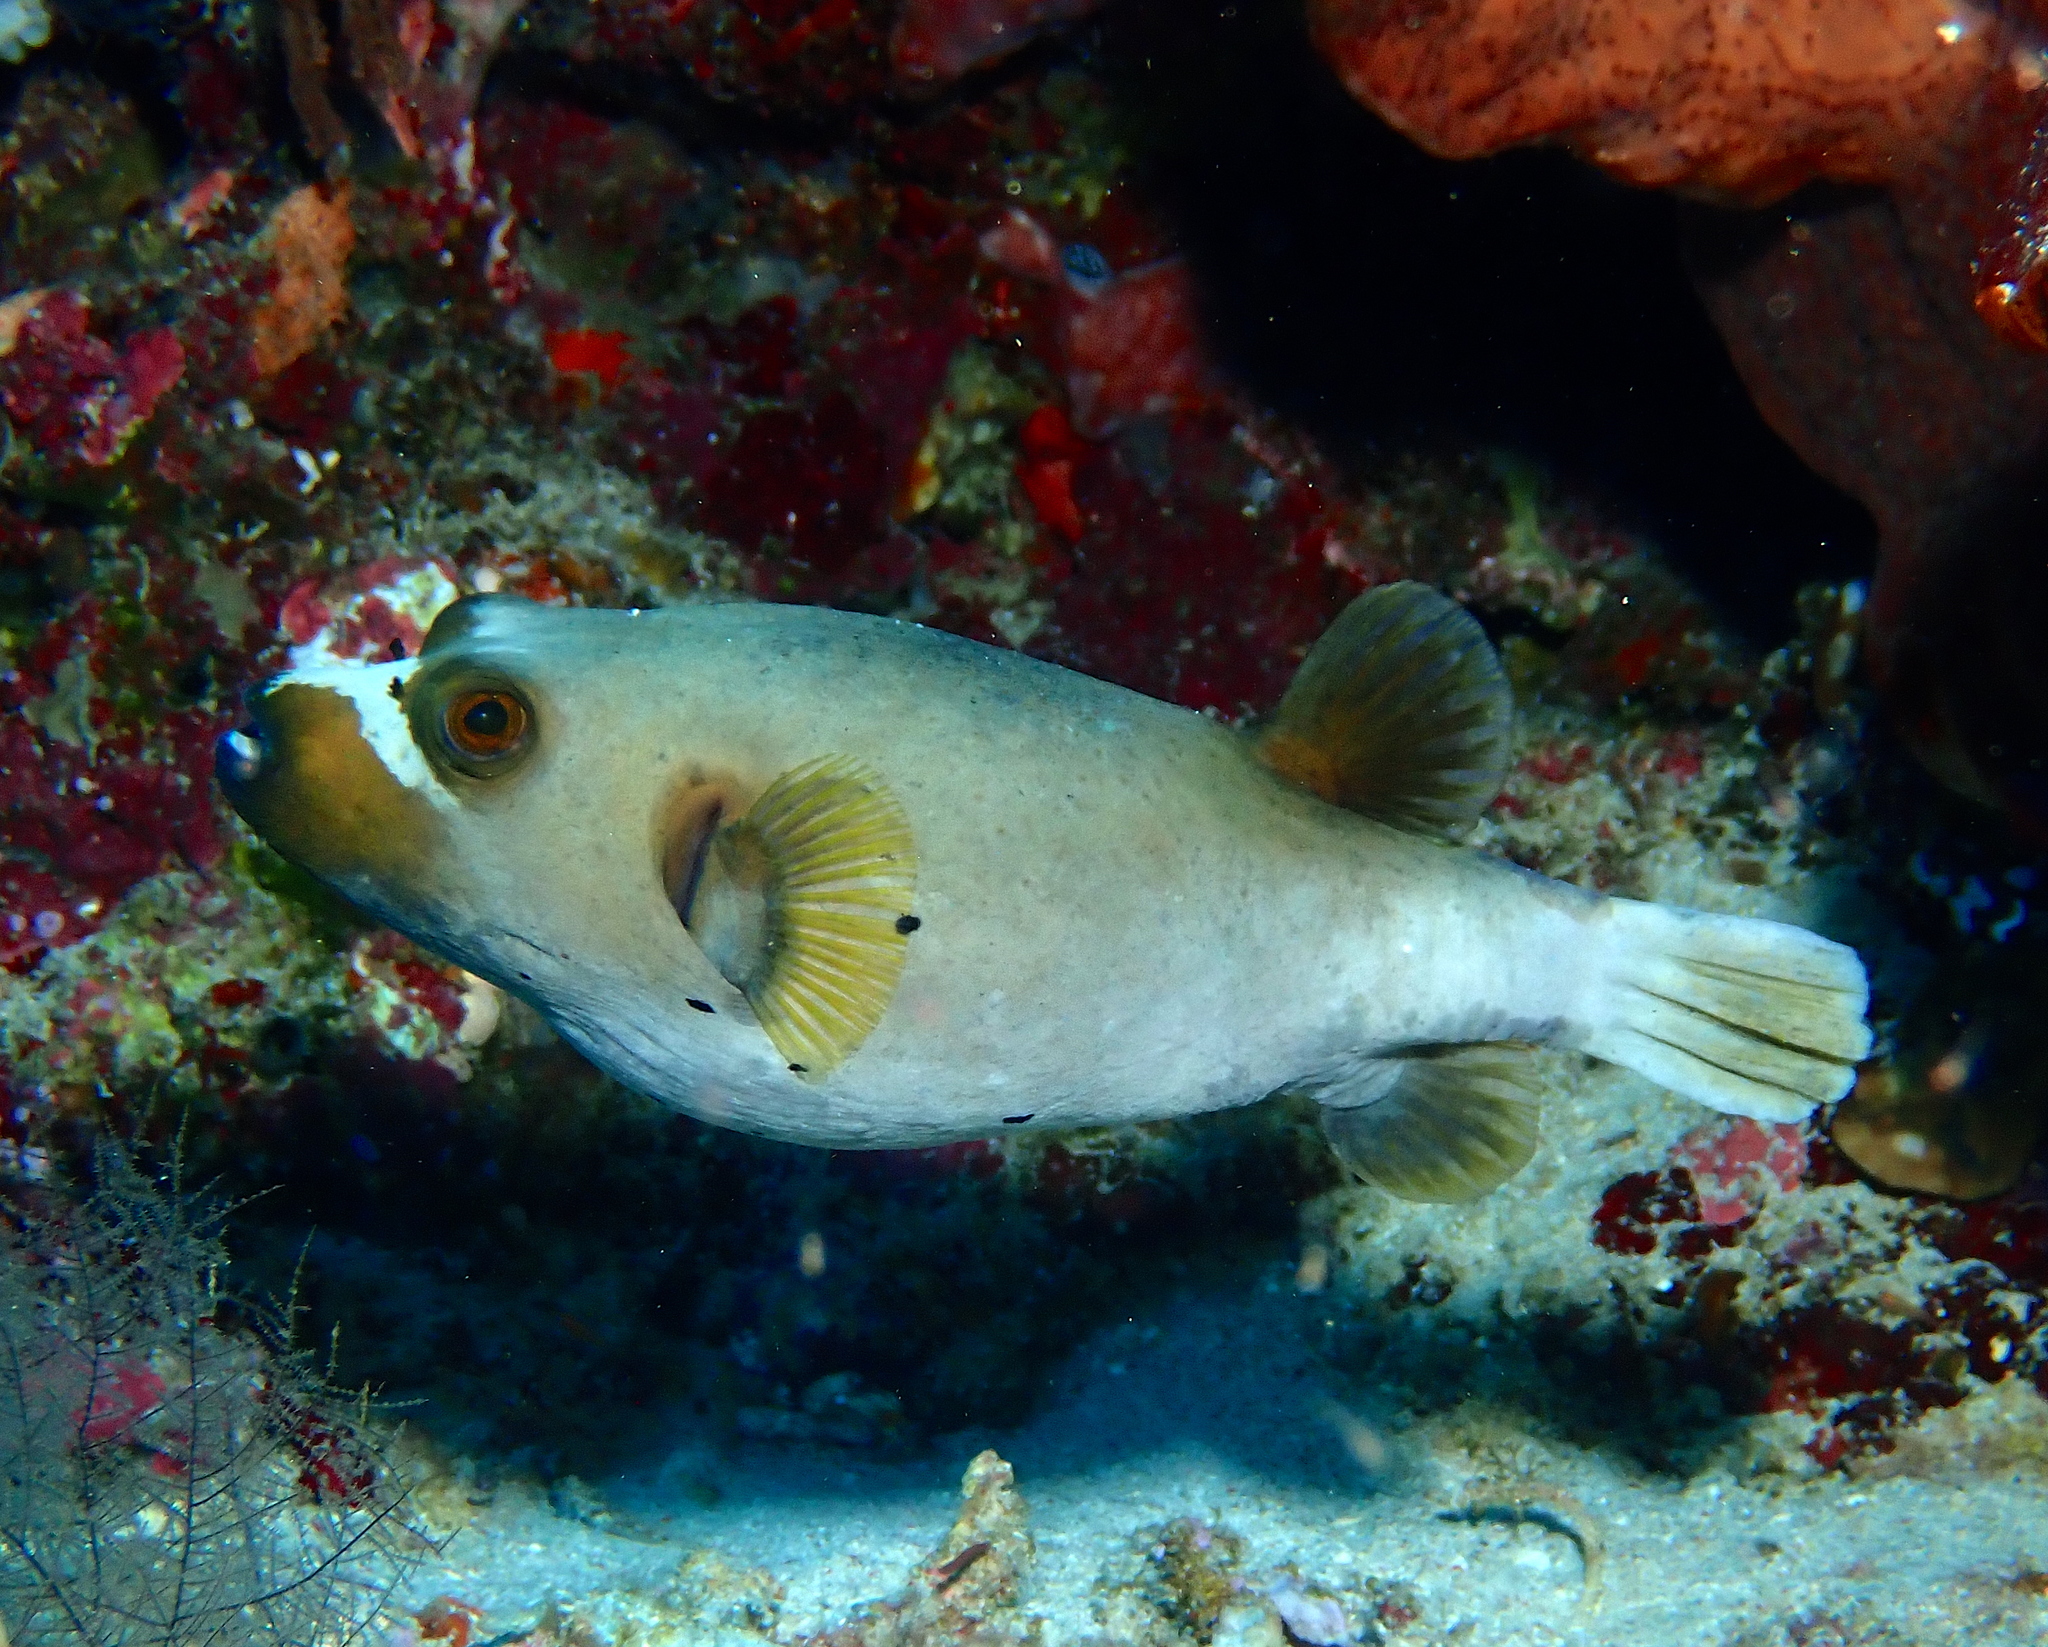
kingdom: Animalia
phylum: Chordata
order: Tetraodontiformes
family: Tetraodontidae
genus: Arothron
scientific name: Arothron nigropunctatus
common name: Black spotted blow fish
